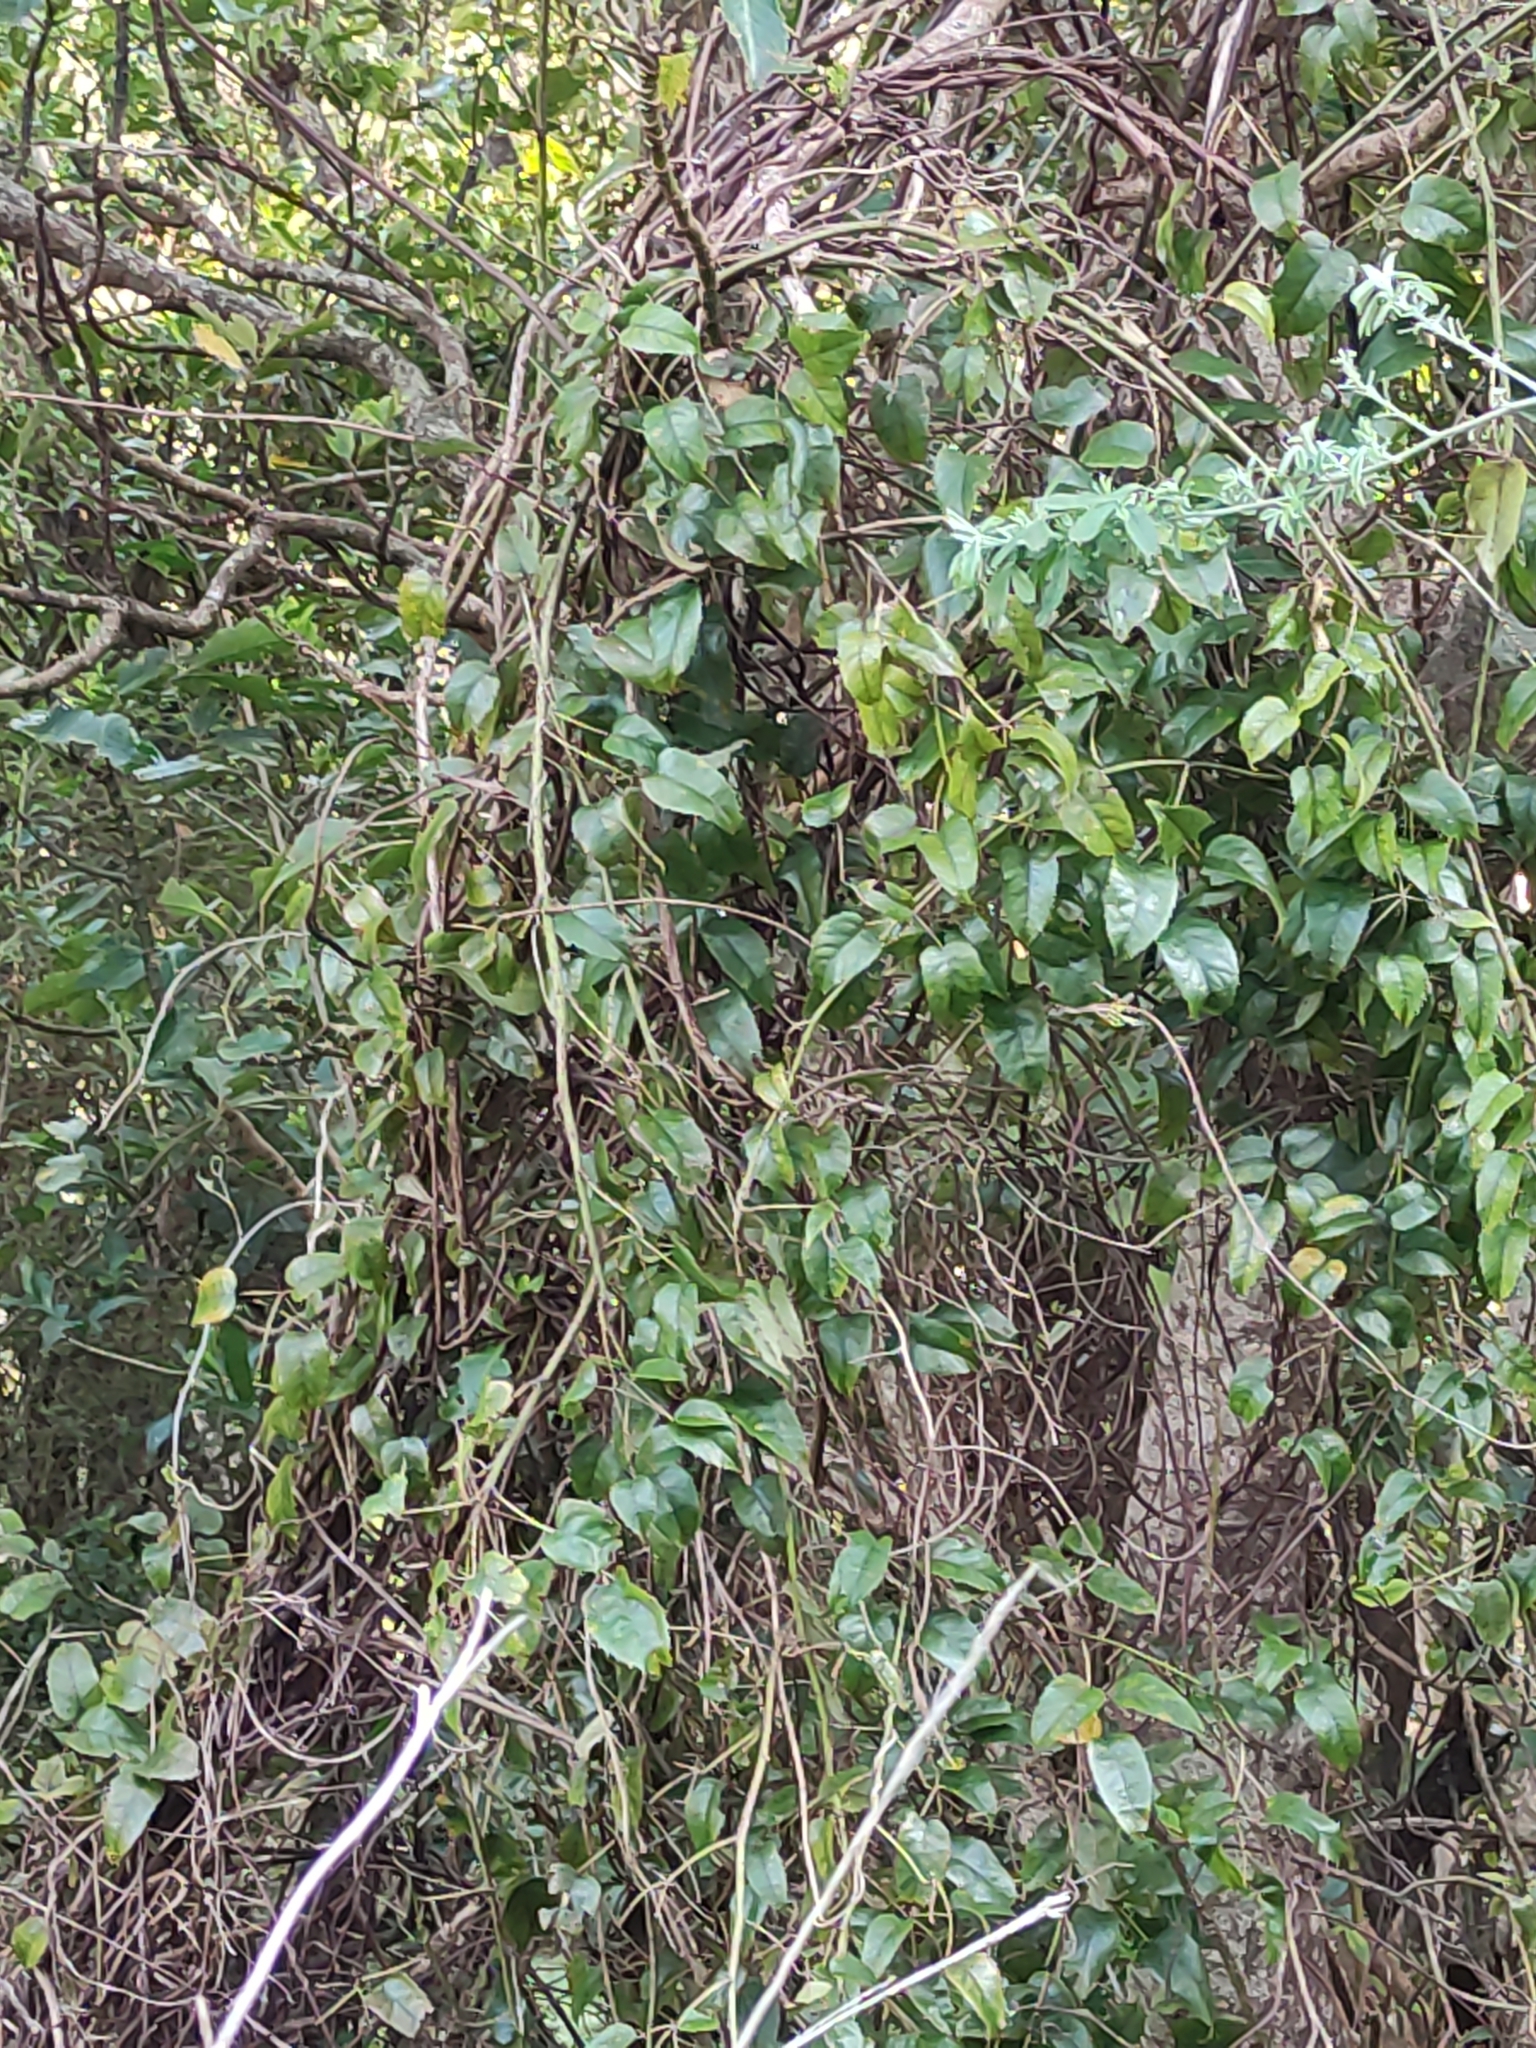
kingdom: Plantae
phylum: Tracheophyta
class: Magnoliopsida
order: Rosales
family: Rosaceae
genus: Rubus
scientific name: Rubus cissoides
